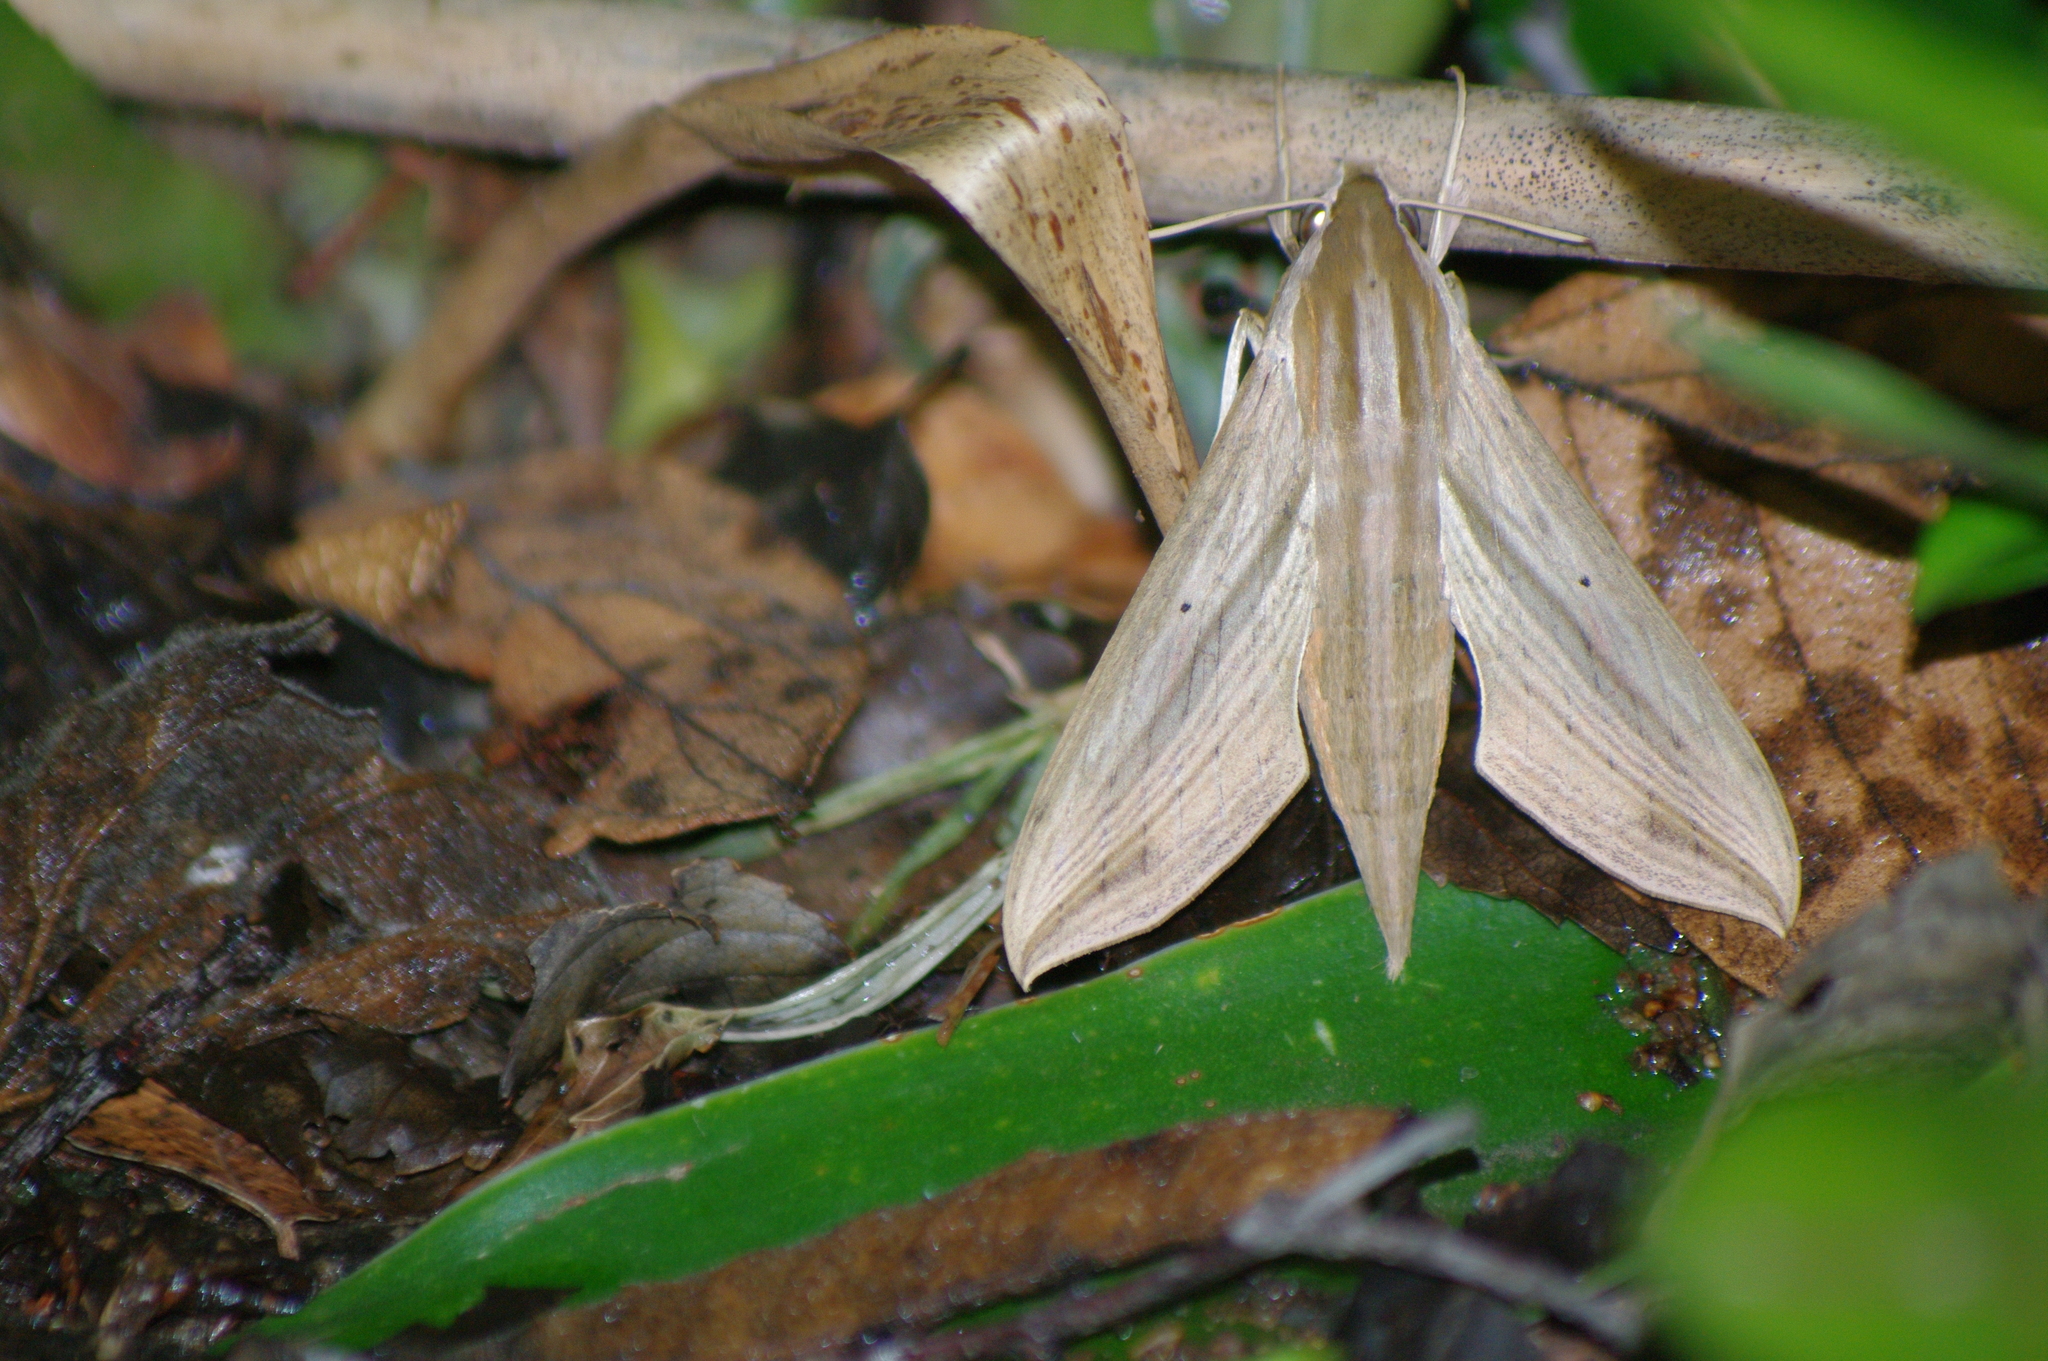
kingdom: Animalia
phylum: Arthropoda
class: Insecta
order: Lepidoptera
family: Sphingidae
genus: Hippotion
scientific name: Hippotion eson
